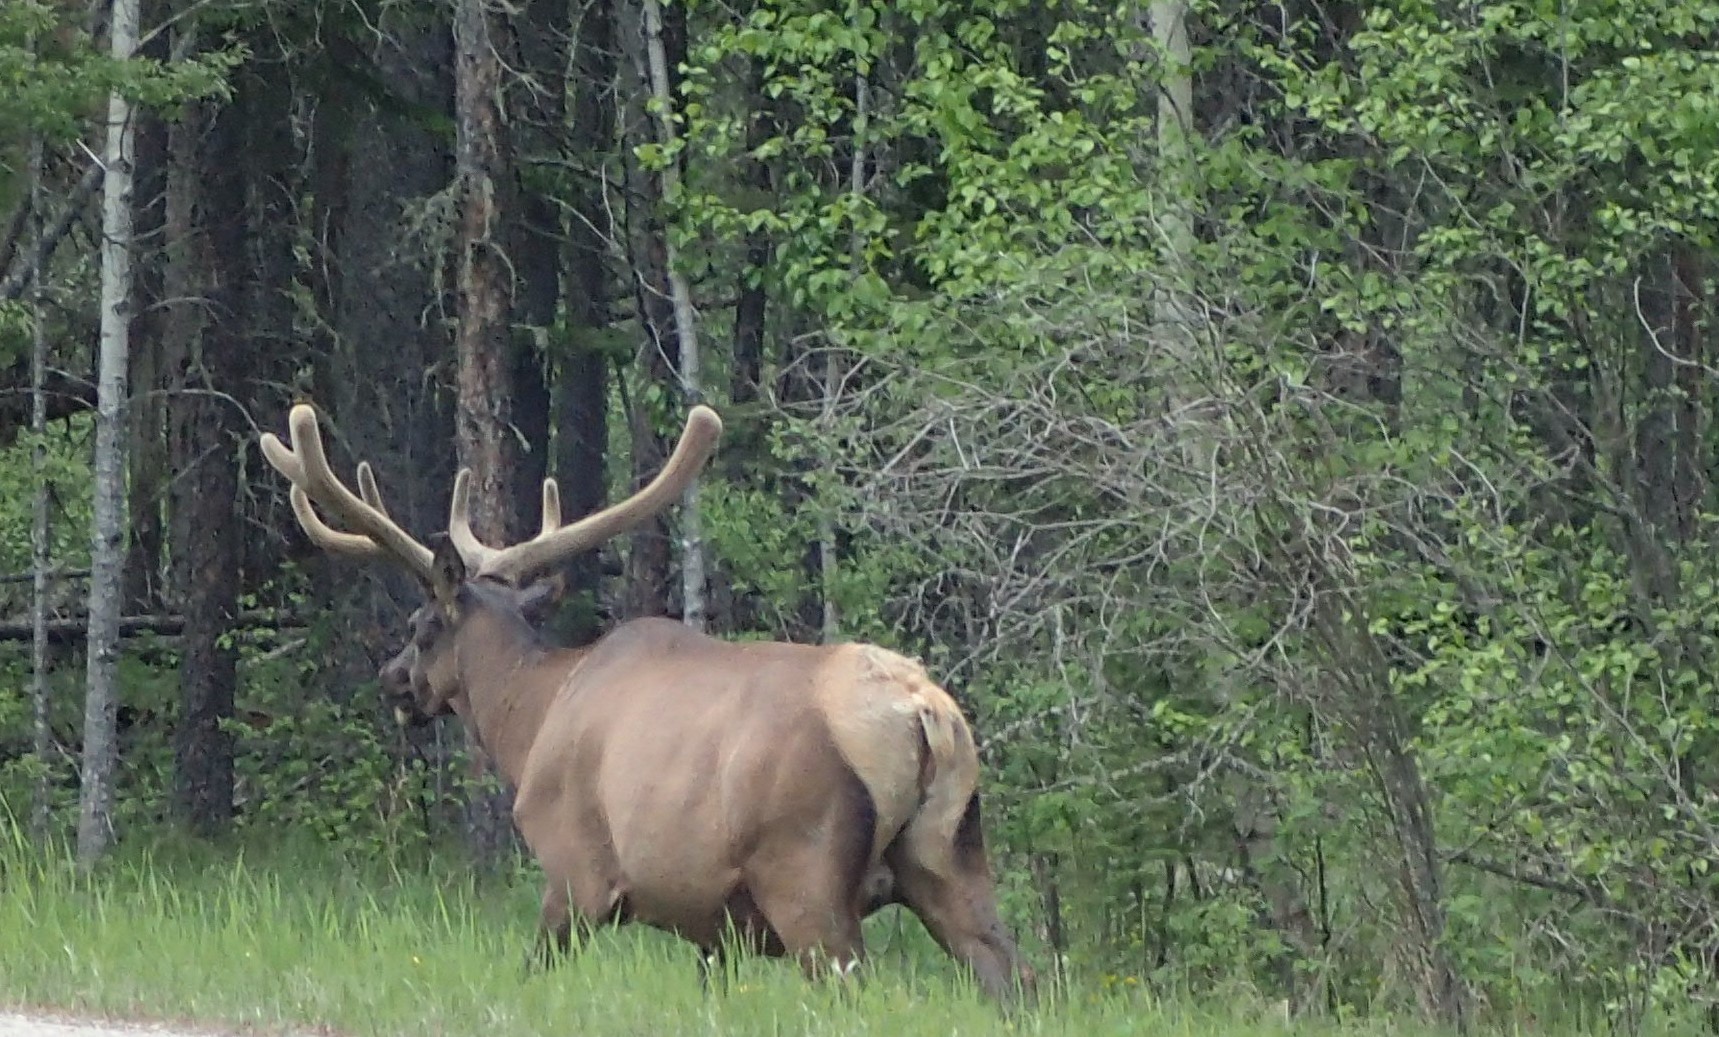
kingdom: Animalia
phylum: Chordata
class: Mammalia
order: Artiodactyla
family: Cervidae
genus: Cervus
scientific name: Cervus elaphus
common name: Red deer
